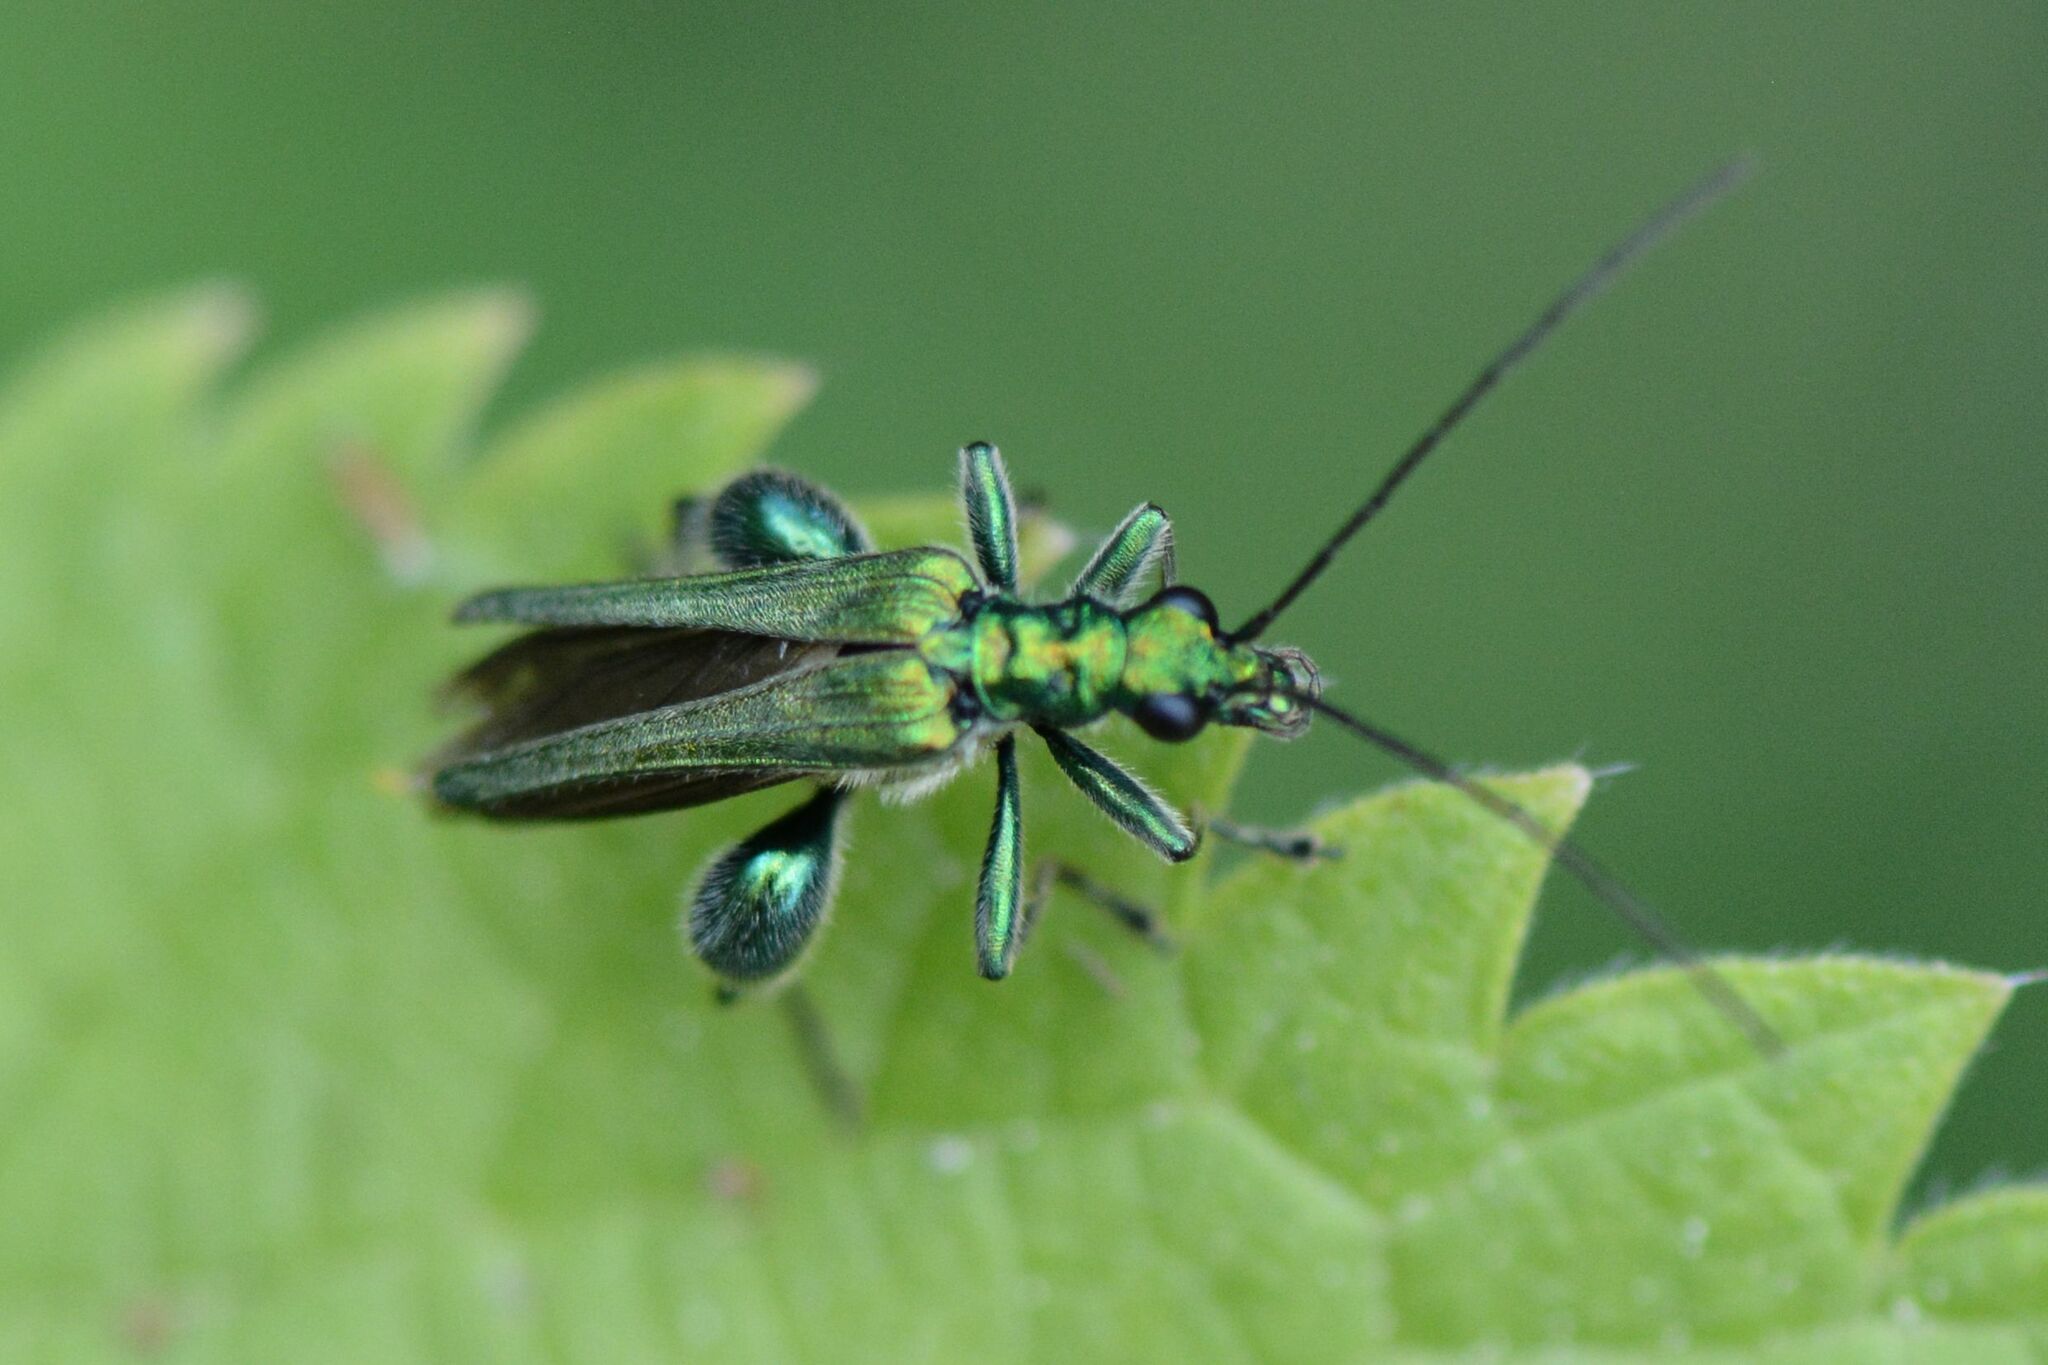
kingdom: Animalia
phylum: Arthropoda
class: Insecta
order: Coleoptera
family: Oedemeridae
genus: Oedemera
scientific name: Oedemera nobilis
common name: Swollen-thighed beetle
